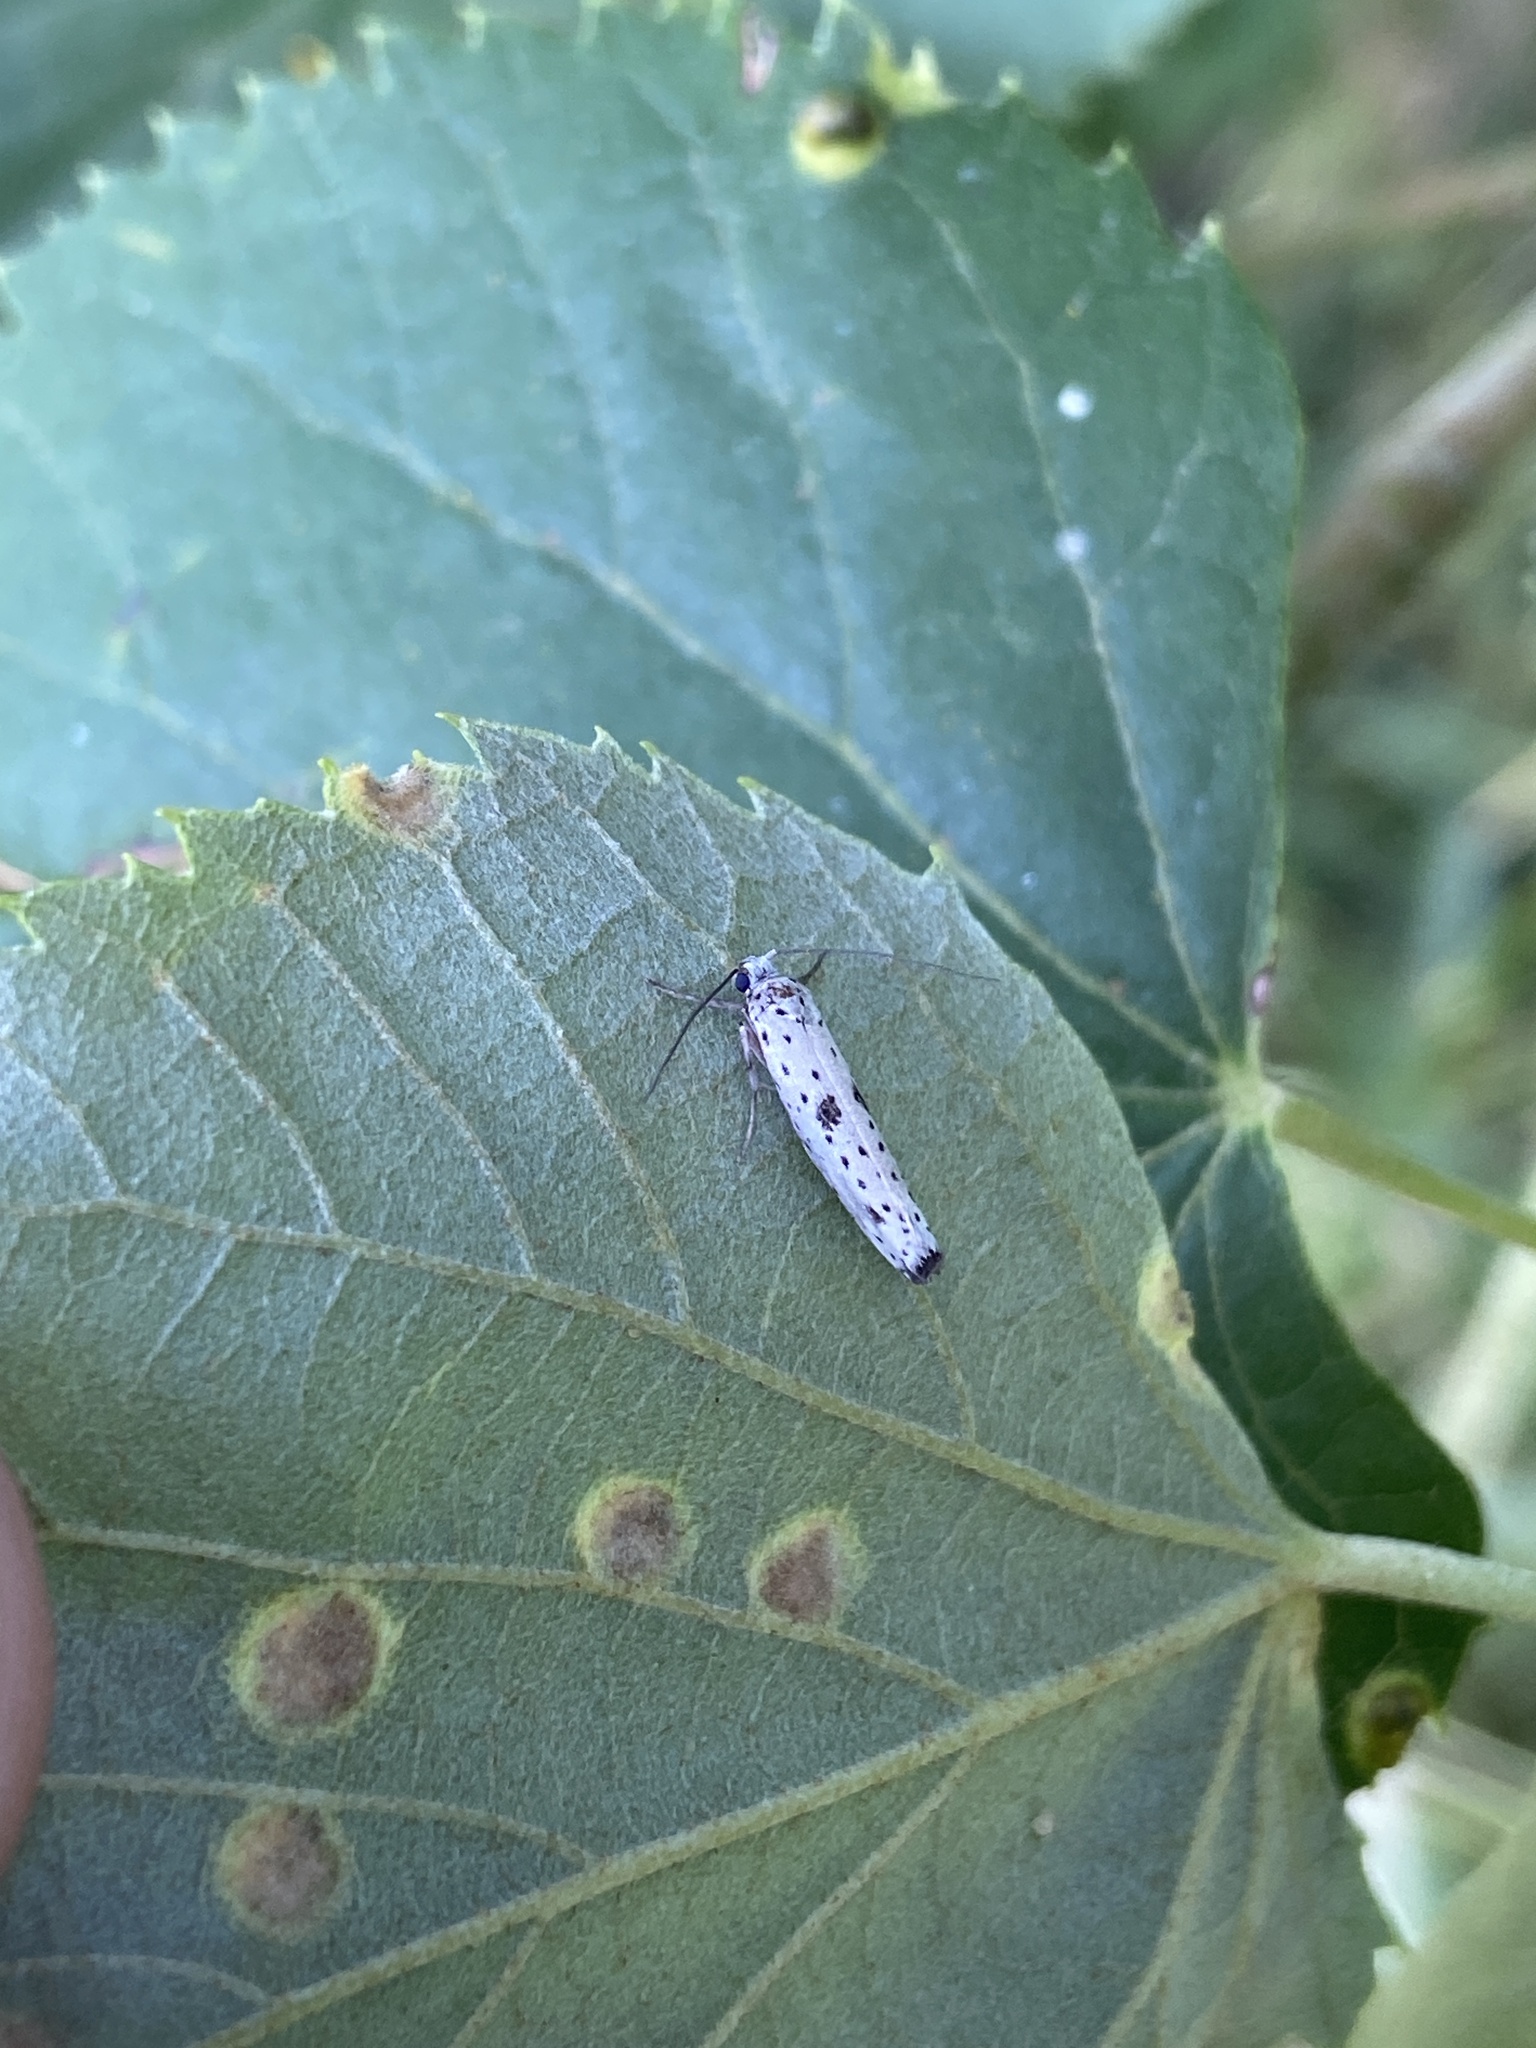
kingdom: Animalia
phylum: Arthropoda
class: Insecta
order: Lepidoptera
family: Yponomeutidae
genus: Yponomeuta
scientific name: Yponomeuta plumbella
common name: Black-tipped ermine
